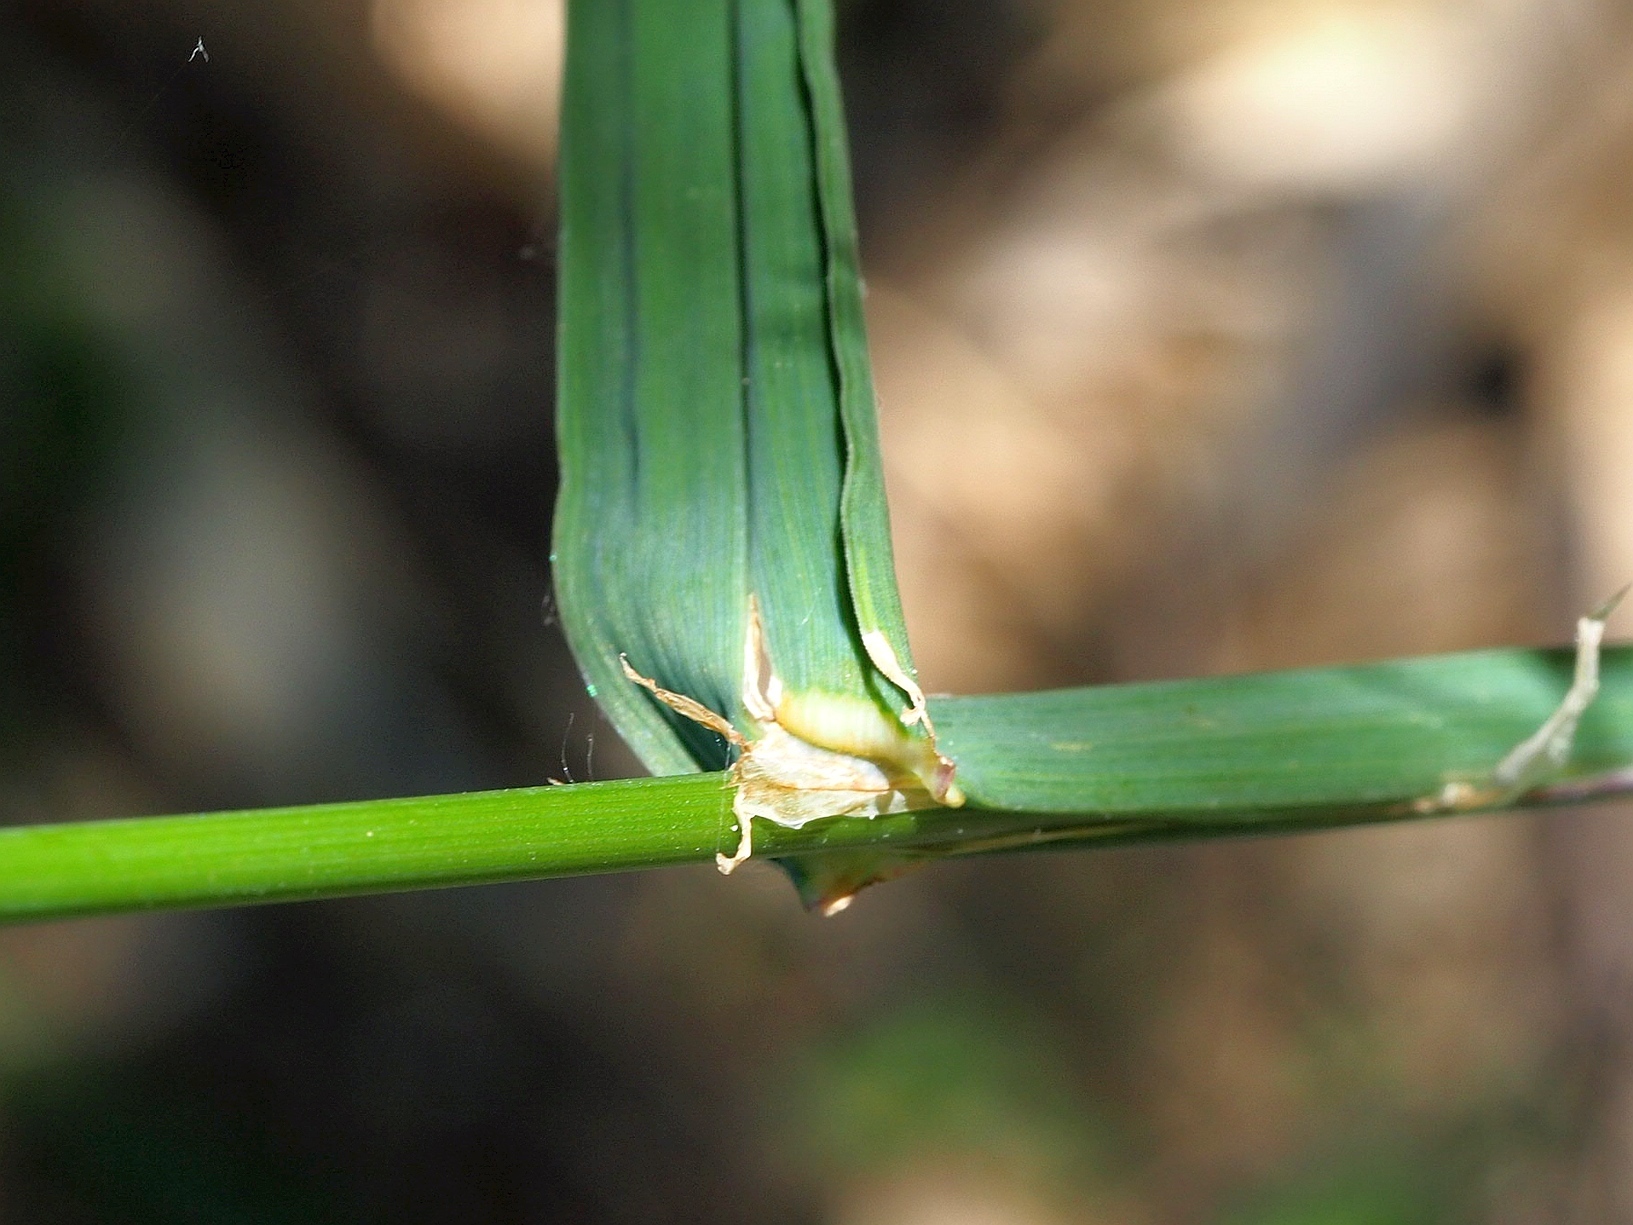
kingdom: Plantae
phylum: Tracheophyta
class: Liliopsida
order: Poales
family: Poaceae
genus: Dactylis
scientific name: Dactylis glomerata
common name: Orchardgrass
